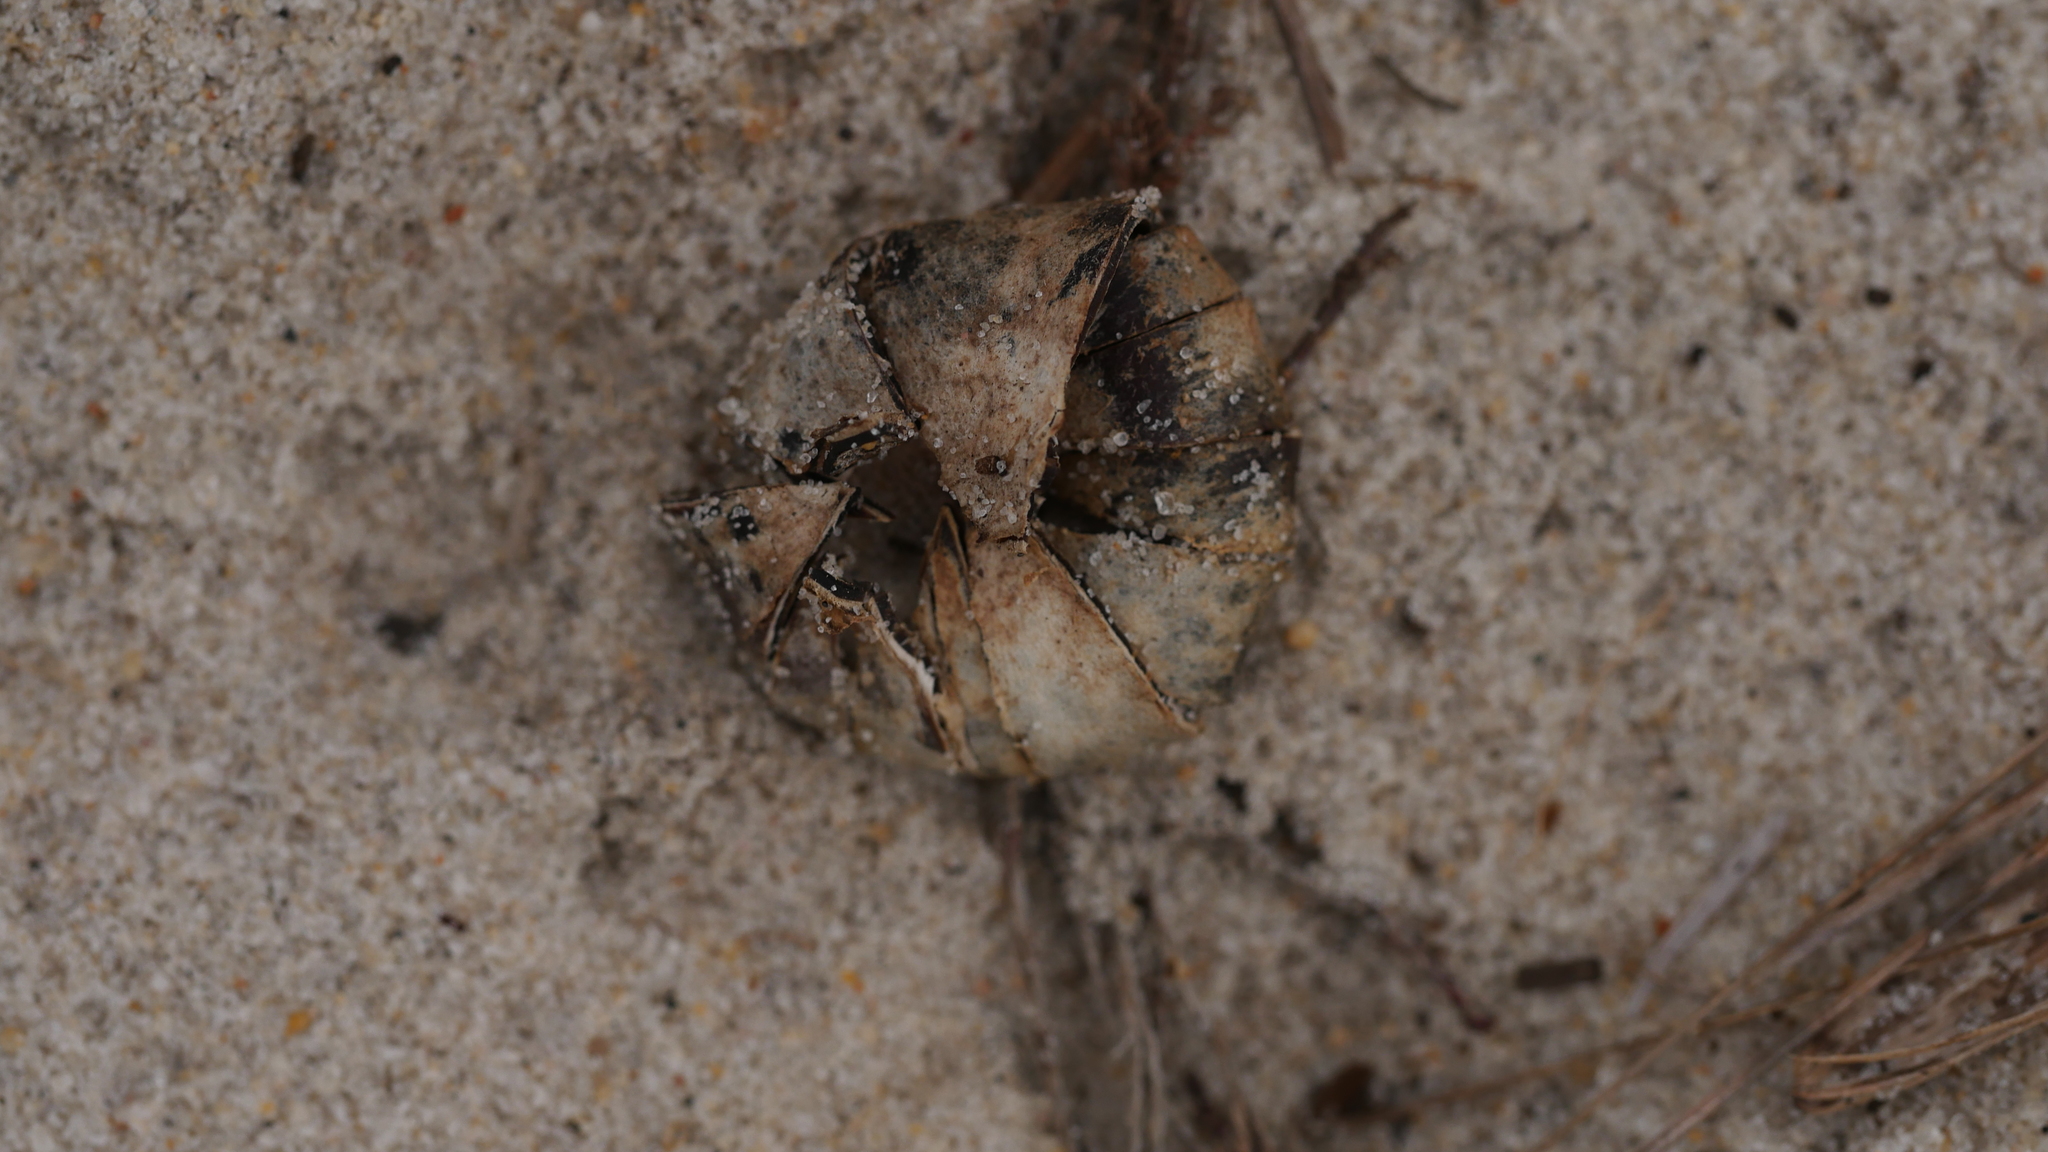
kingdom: Fungi
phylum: Basidiomycota
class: Agaricomycetes
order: Boletales
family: Diplocystidiaceae
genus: Astraeus
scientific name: Astraeus morganii
